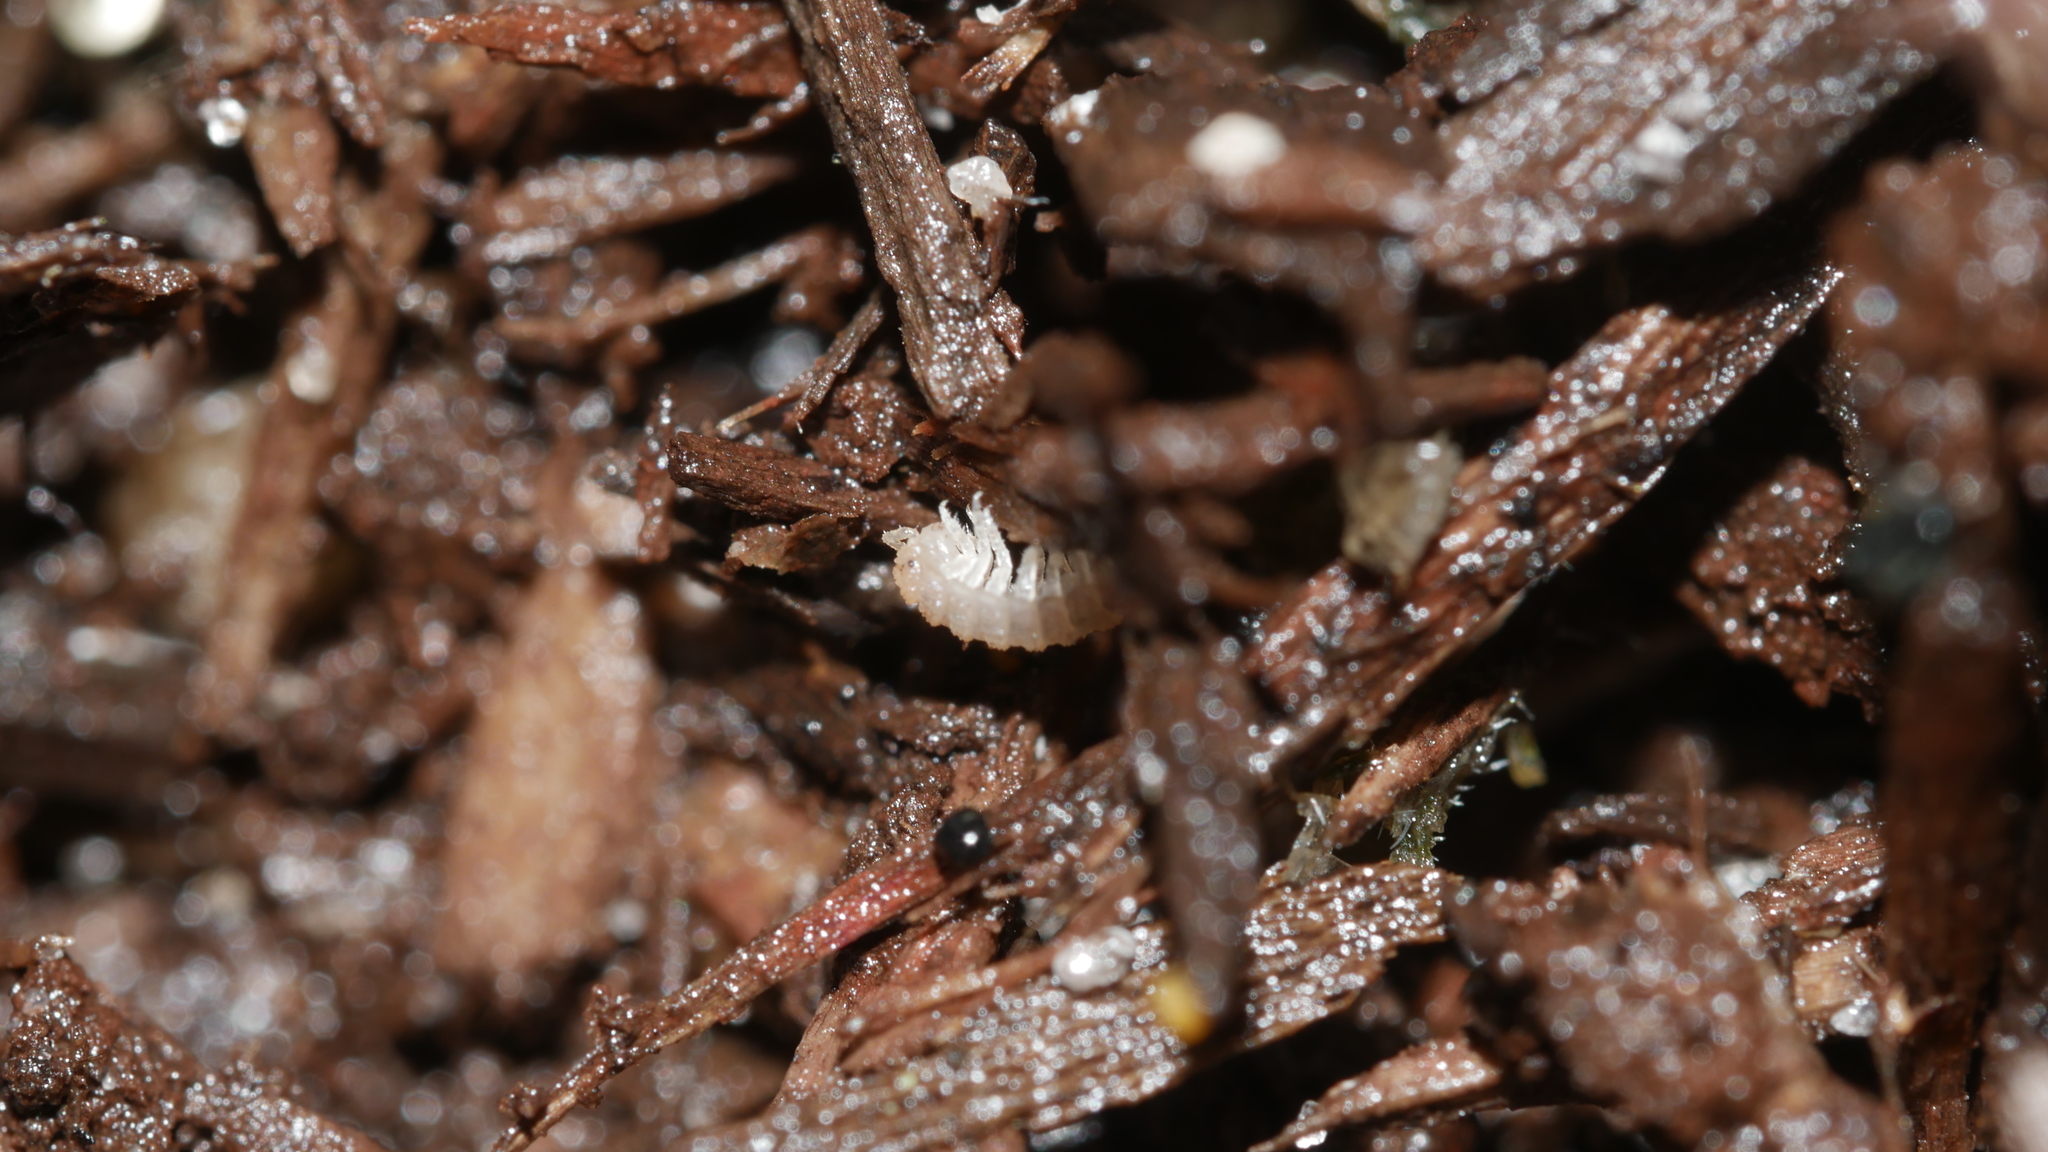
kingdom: Animalia
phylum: Arthropoda
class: Malacostraca
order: Isopoda
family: Trichoniscidae
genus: Haplophthalmus
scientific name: Haplophthalmus danicus
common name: Pillbug
